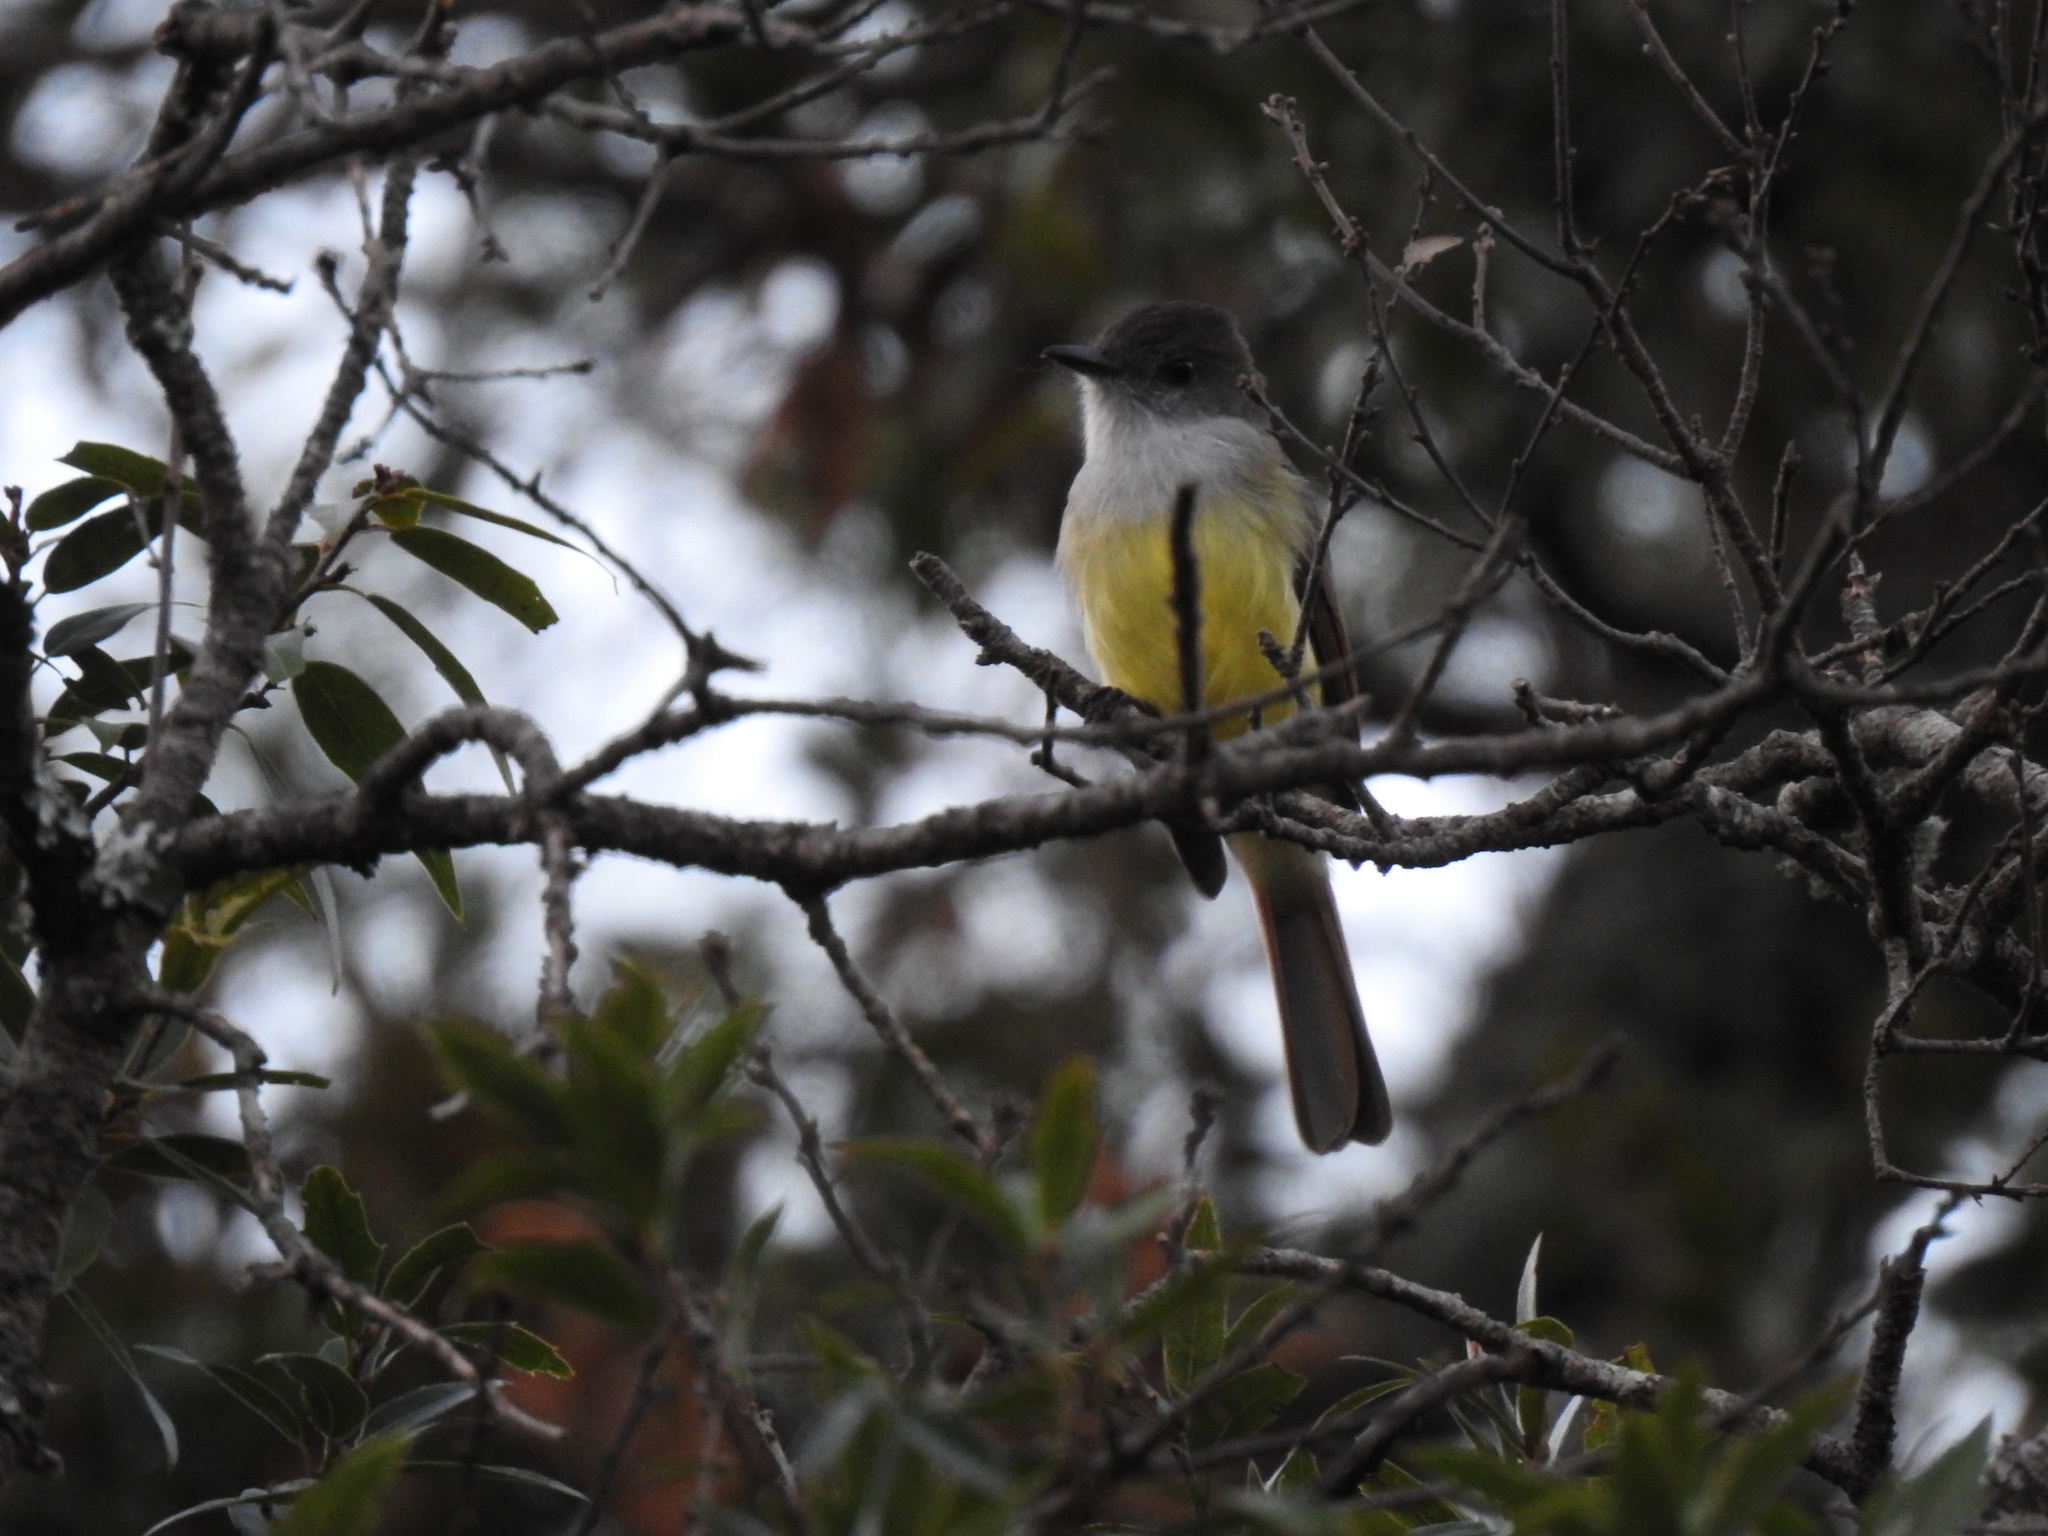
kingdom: Animalia
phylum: Chordata
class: Aves
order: Passeriformes
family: Tyrannidae
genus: Myiarchus
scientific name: Myiarchus tuberculifer
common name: Dusky-capped flycatcher
